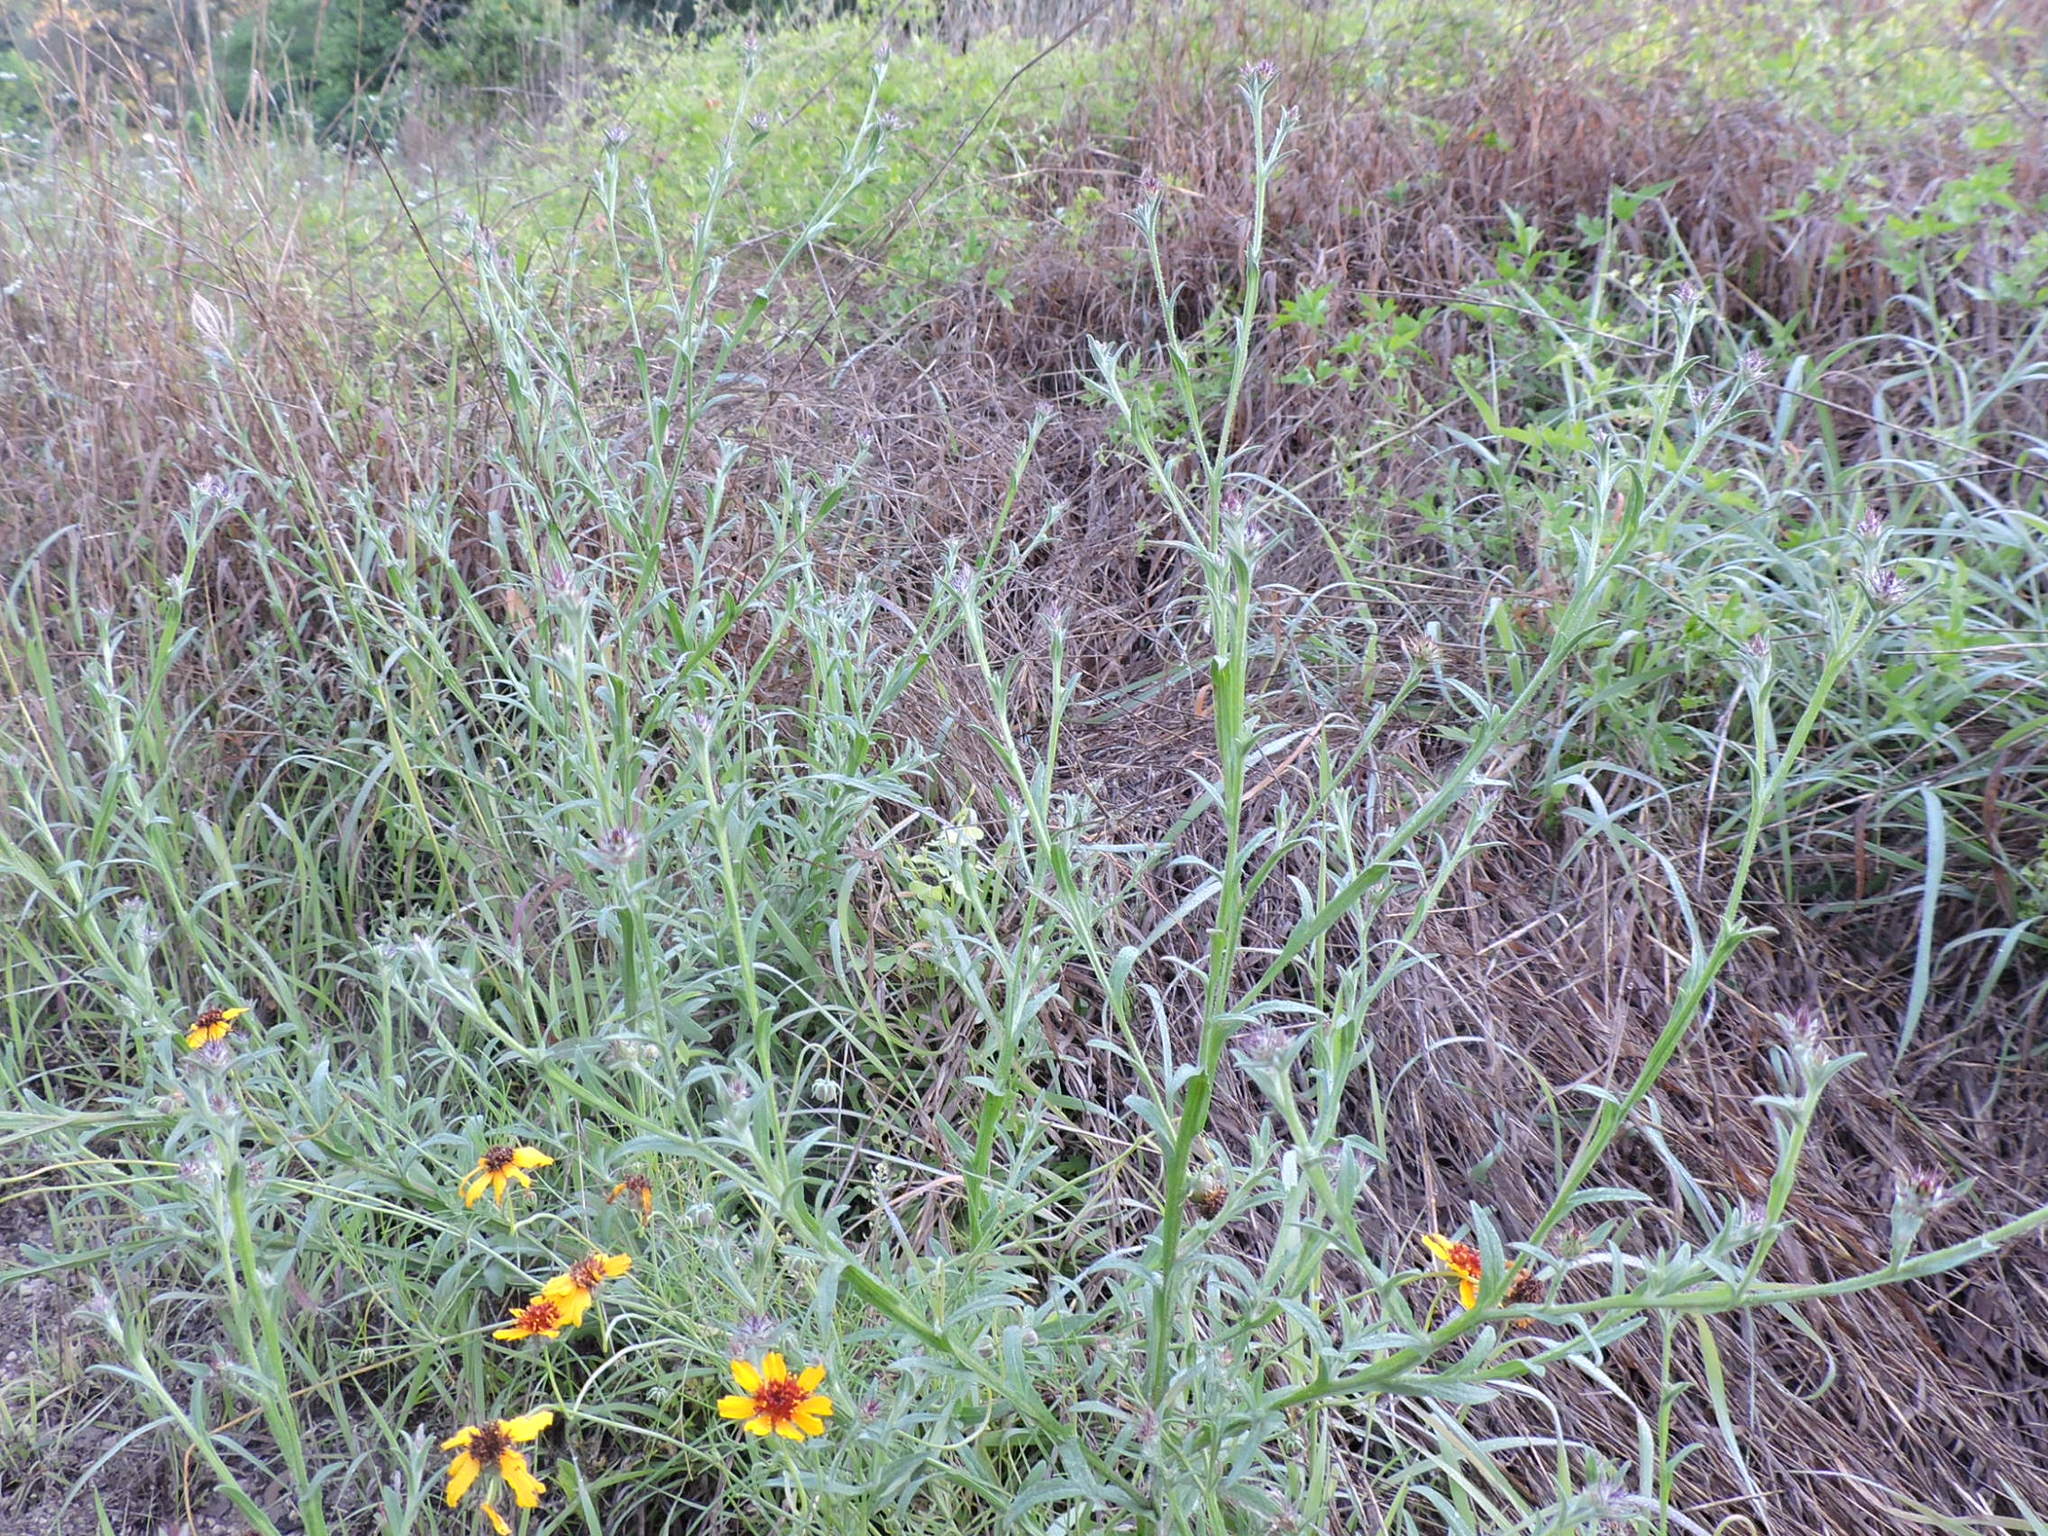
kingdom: Plantae
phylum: Tracheophyta
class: Magnoliopsida
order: Asterales
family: Asteraceae
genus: Centaurea
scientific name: Centaurea melitensis
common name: Maltese star-thistle
